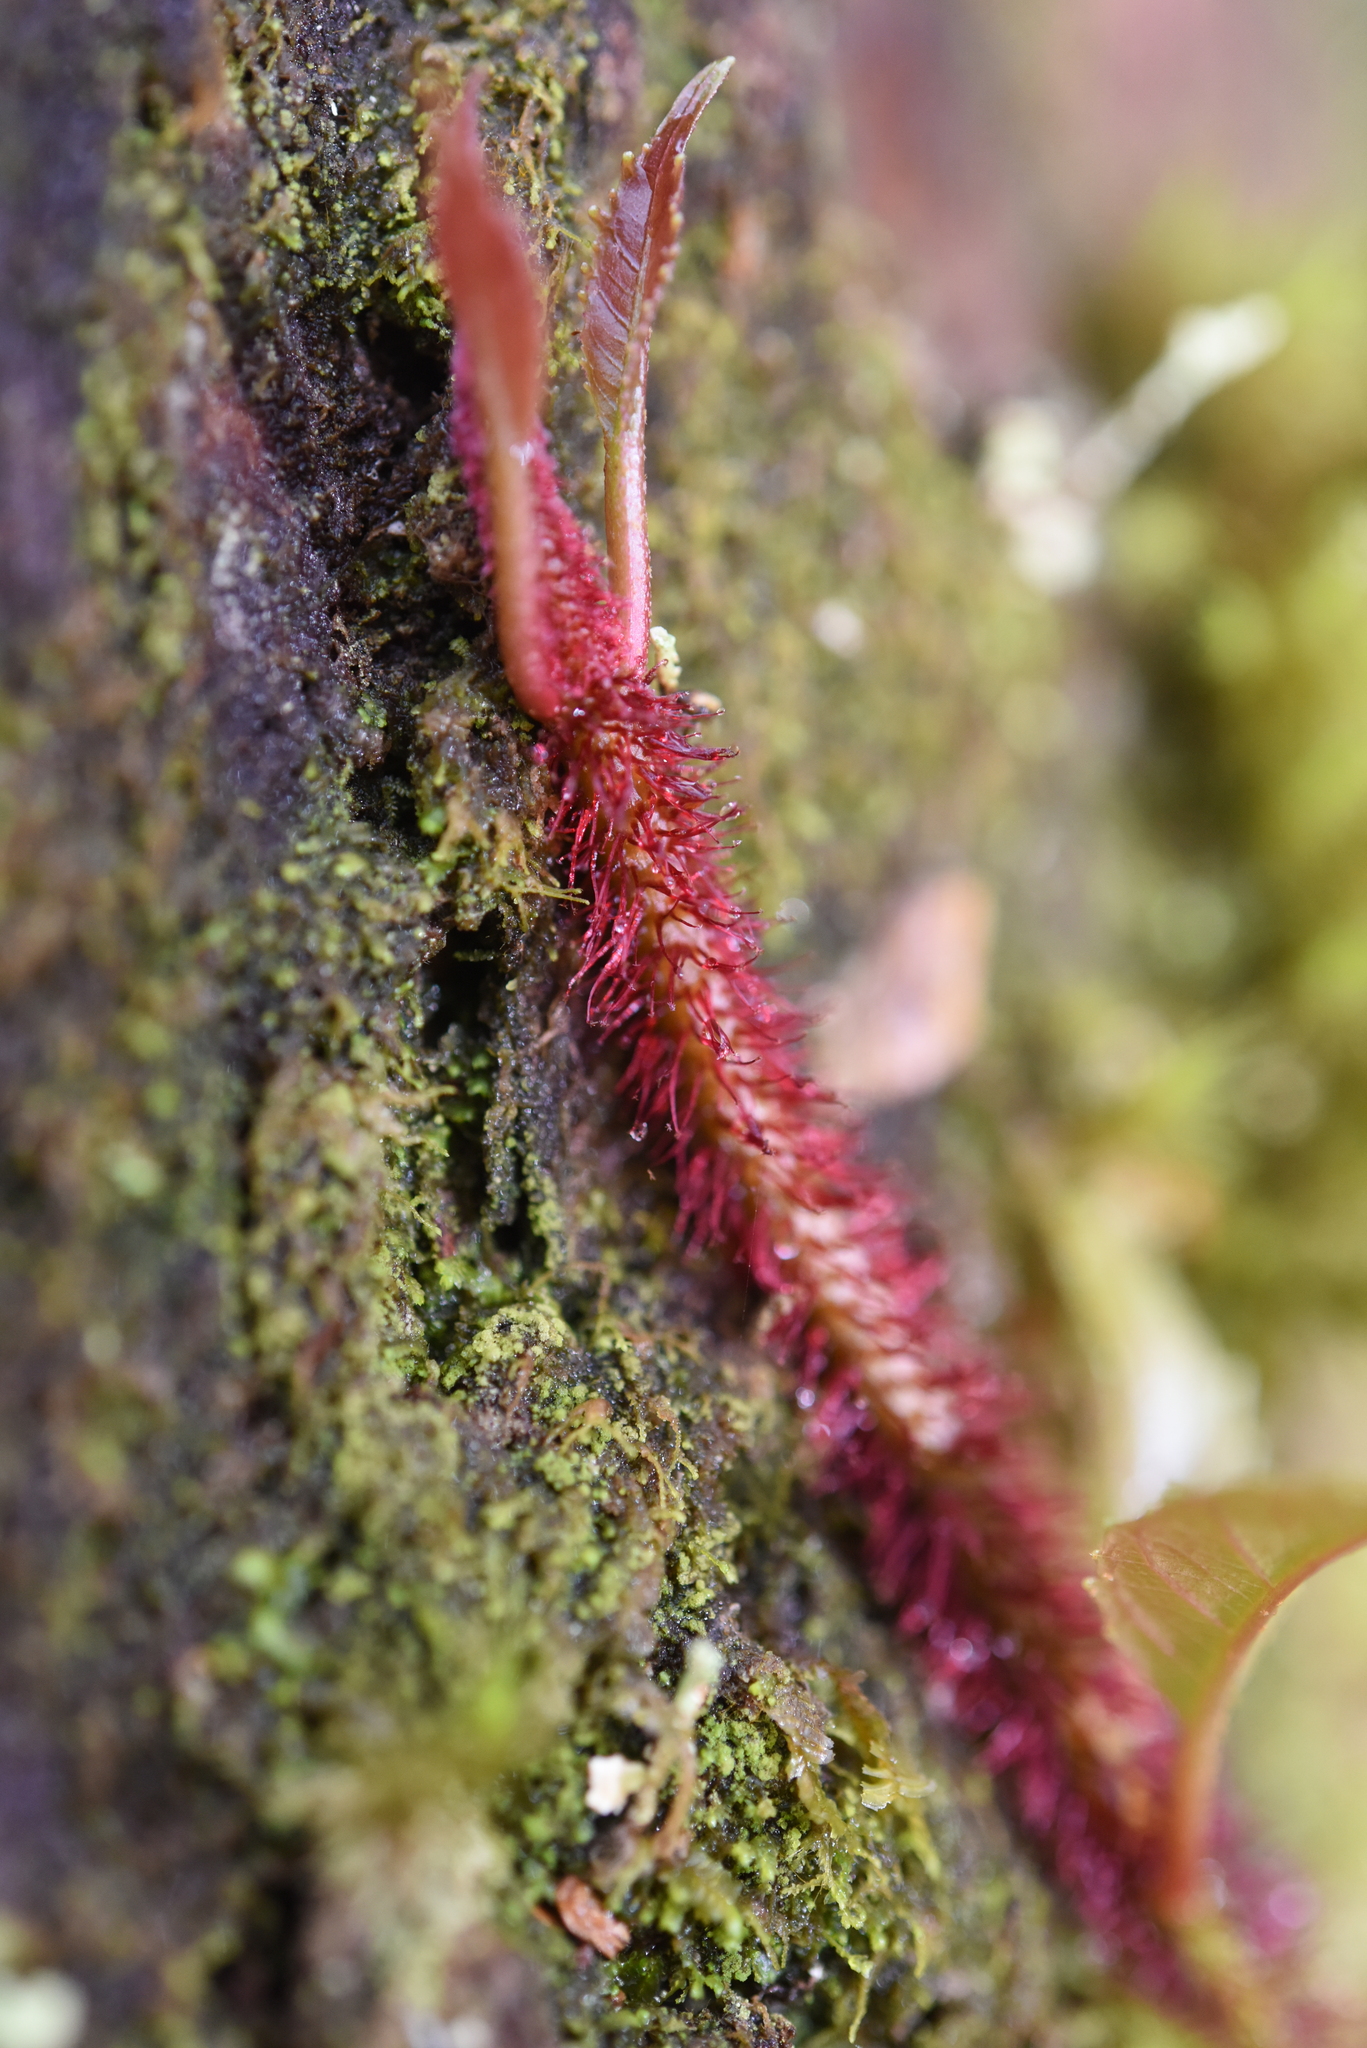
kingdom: Plantae
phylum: Tracheophyta
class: Magnoliopsida
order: Cornales
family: Hydrangeaceae
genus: Hydrangea
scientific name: Hydrangea viburnoides
